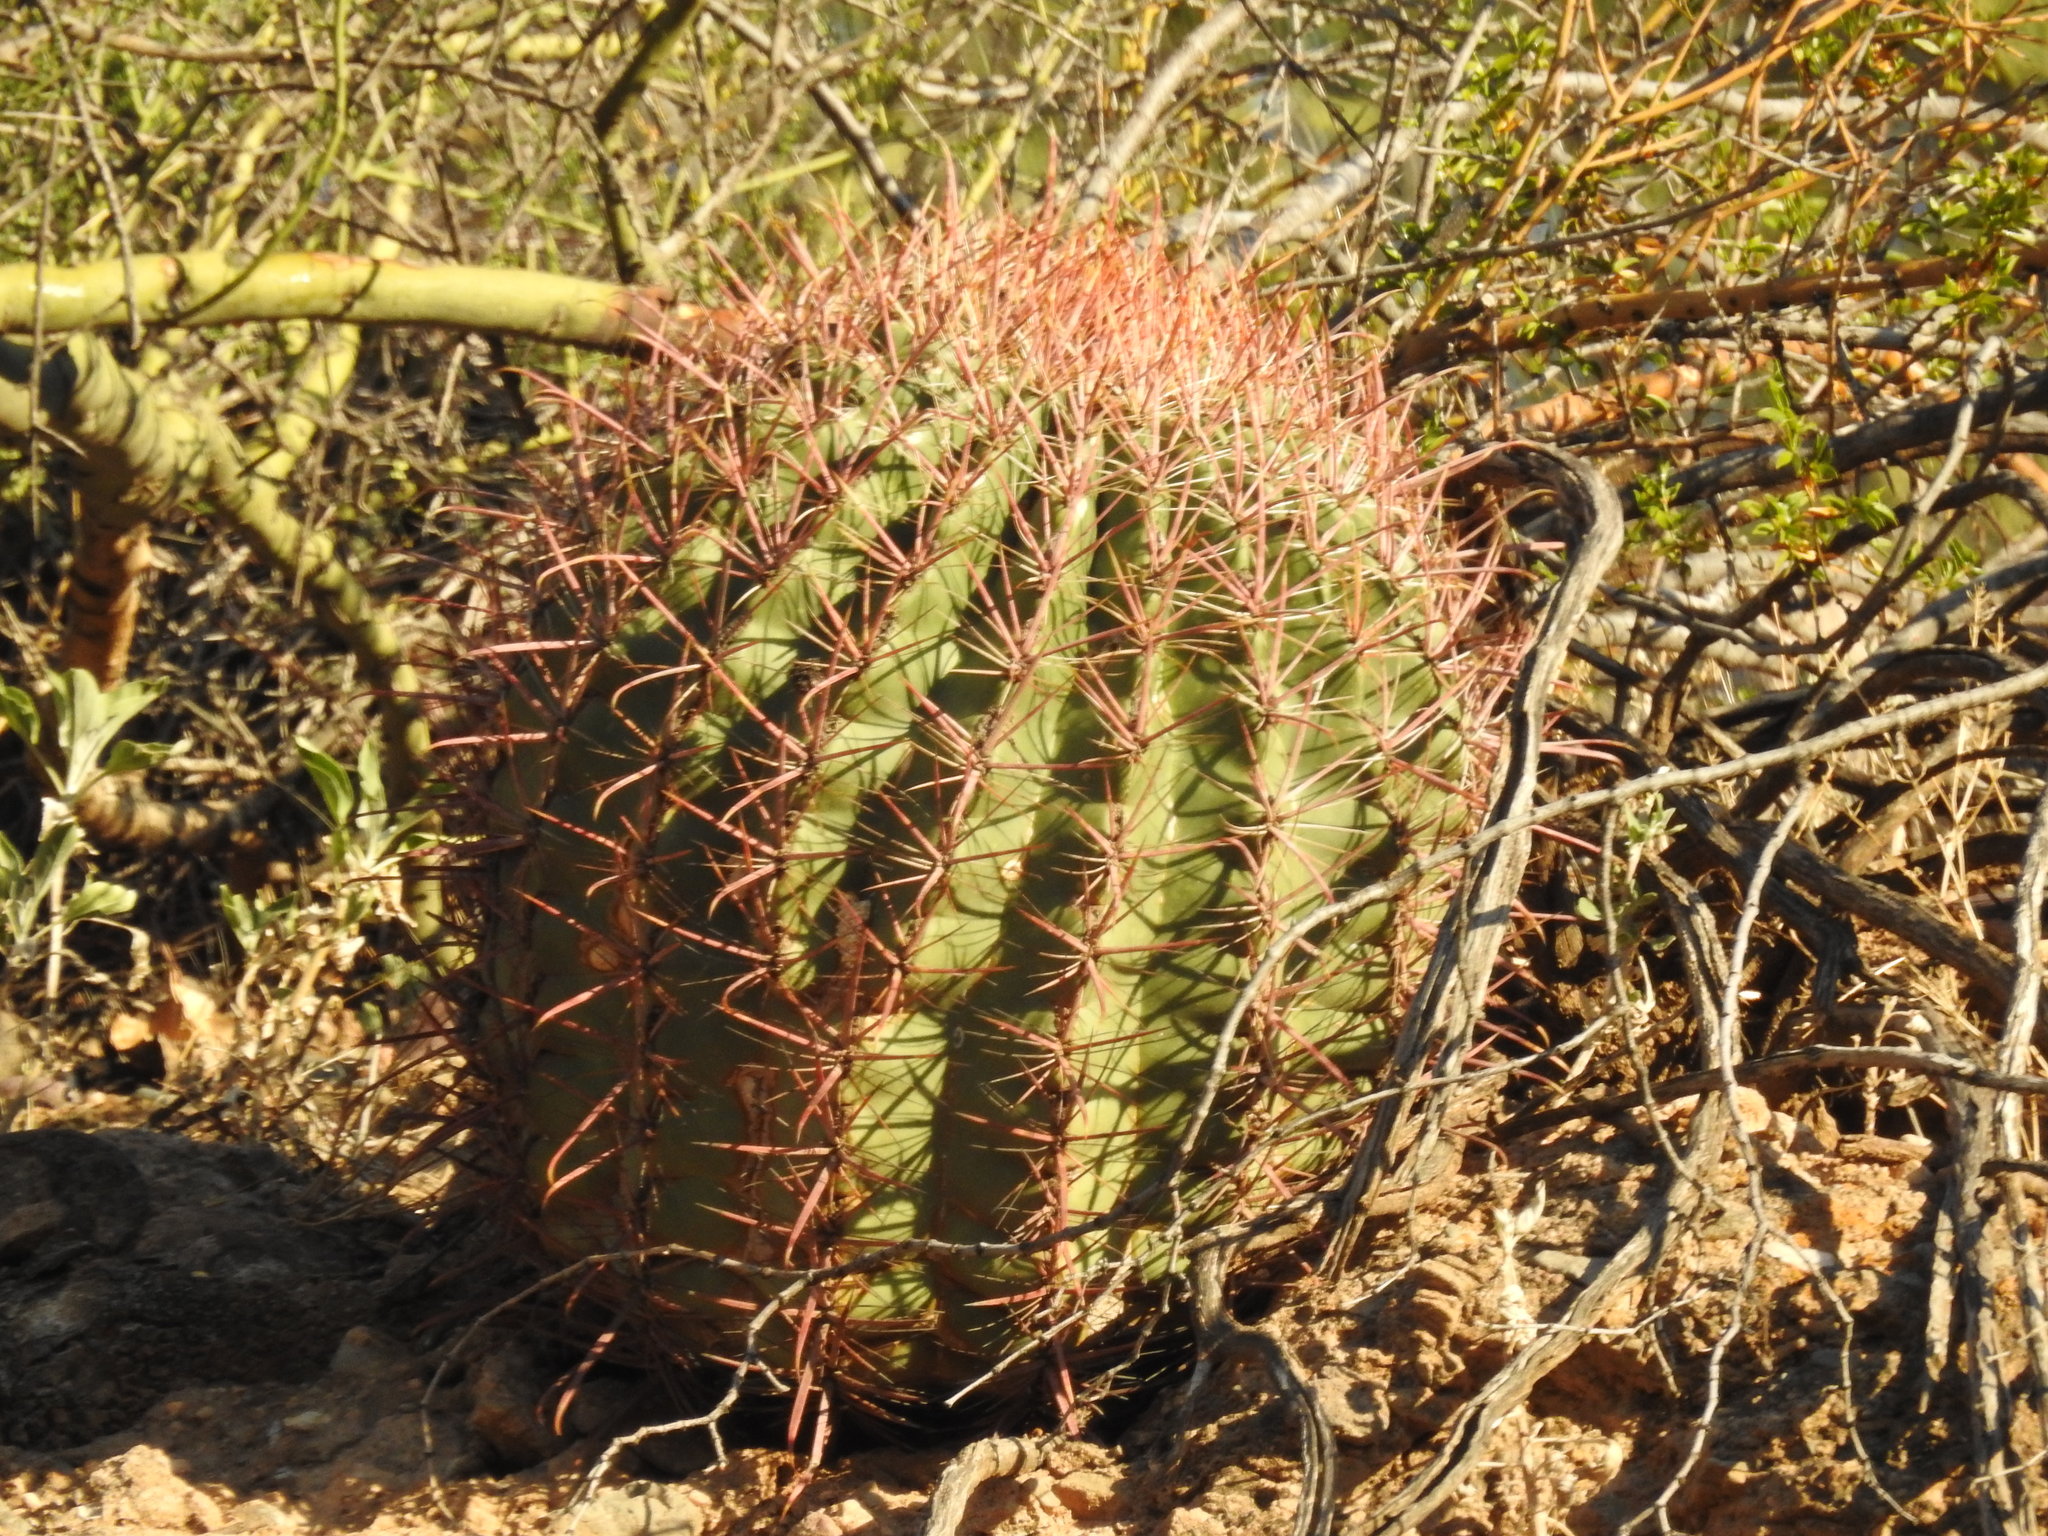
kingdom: Plantae
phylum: Tracheophyta
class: Magnoliopsida
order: Caryophyllales
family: Cactaceae
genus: Ferocactus
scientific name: Ferocactus cylindraceus
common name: California barrel cactus
